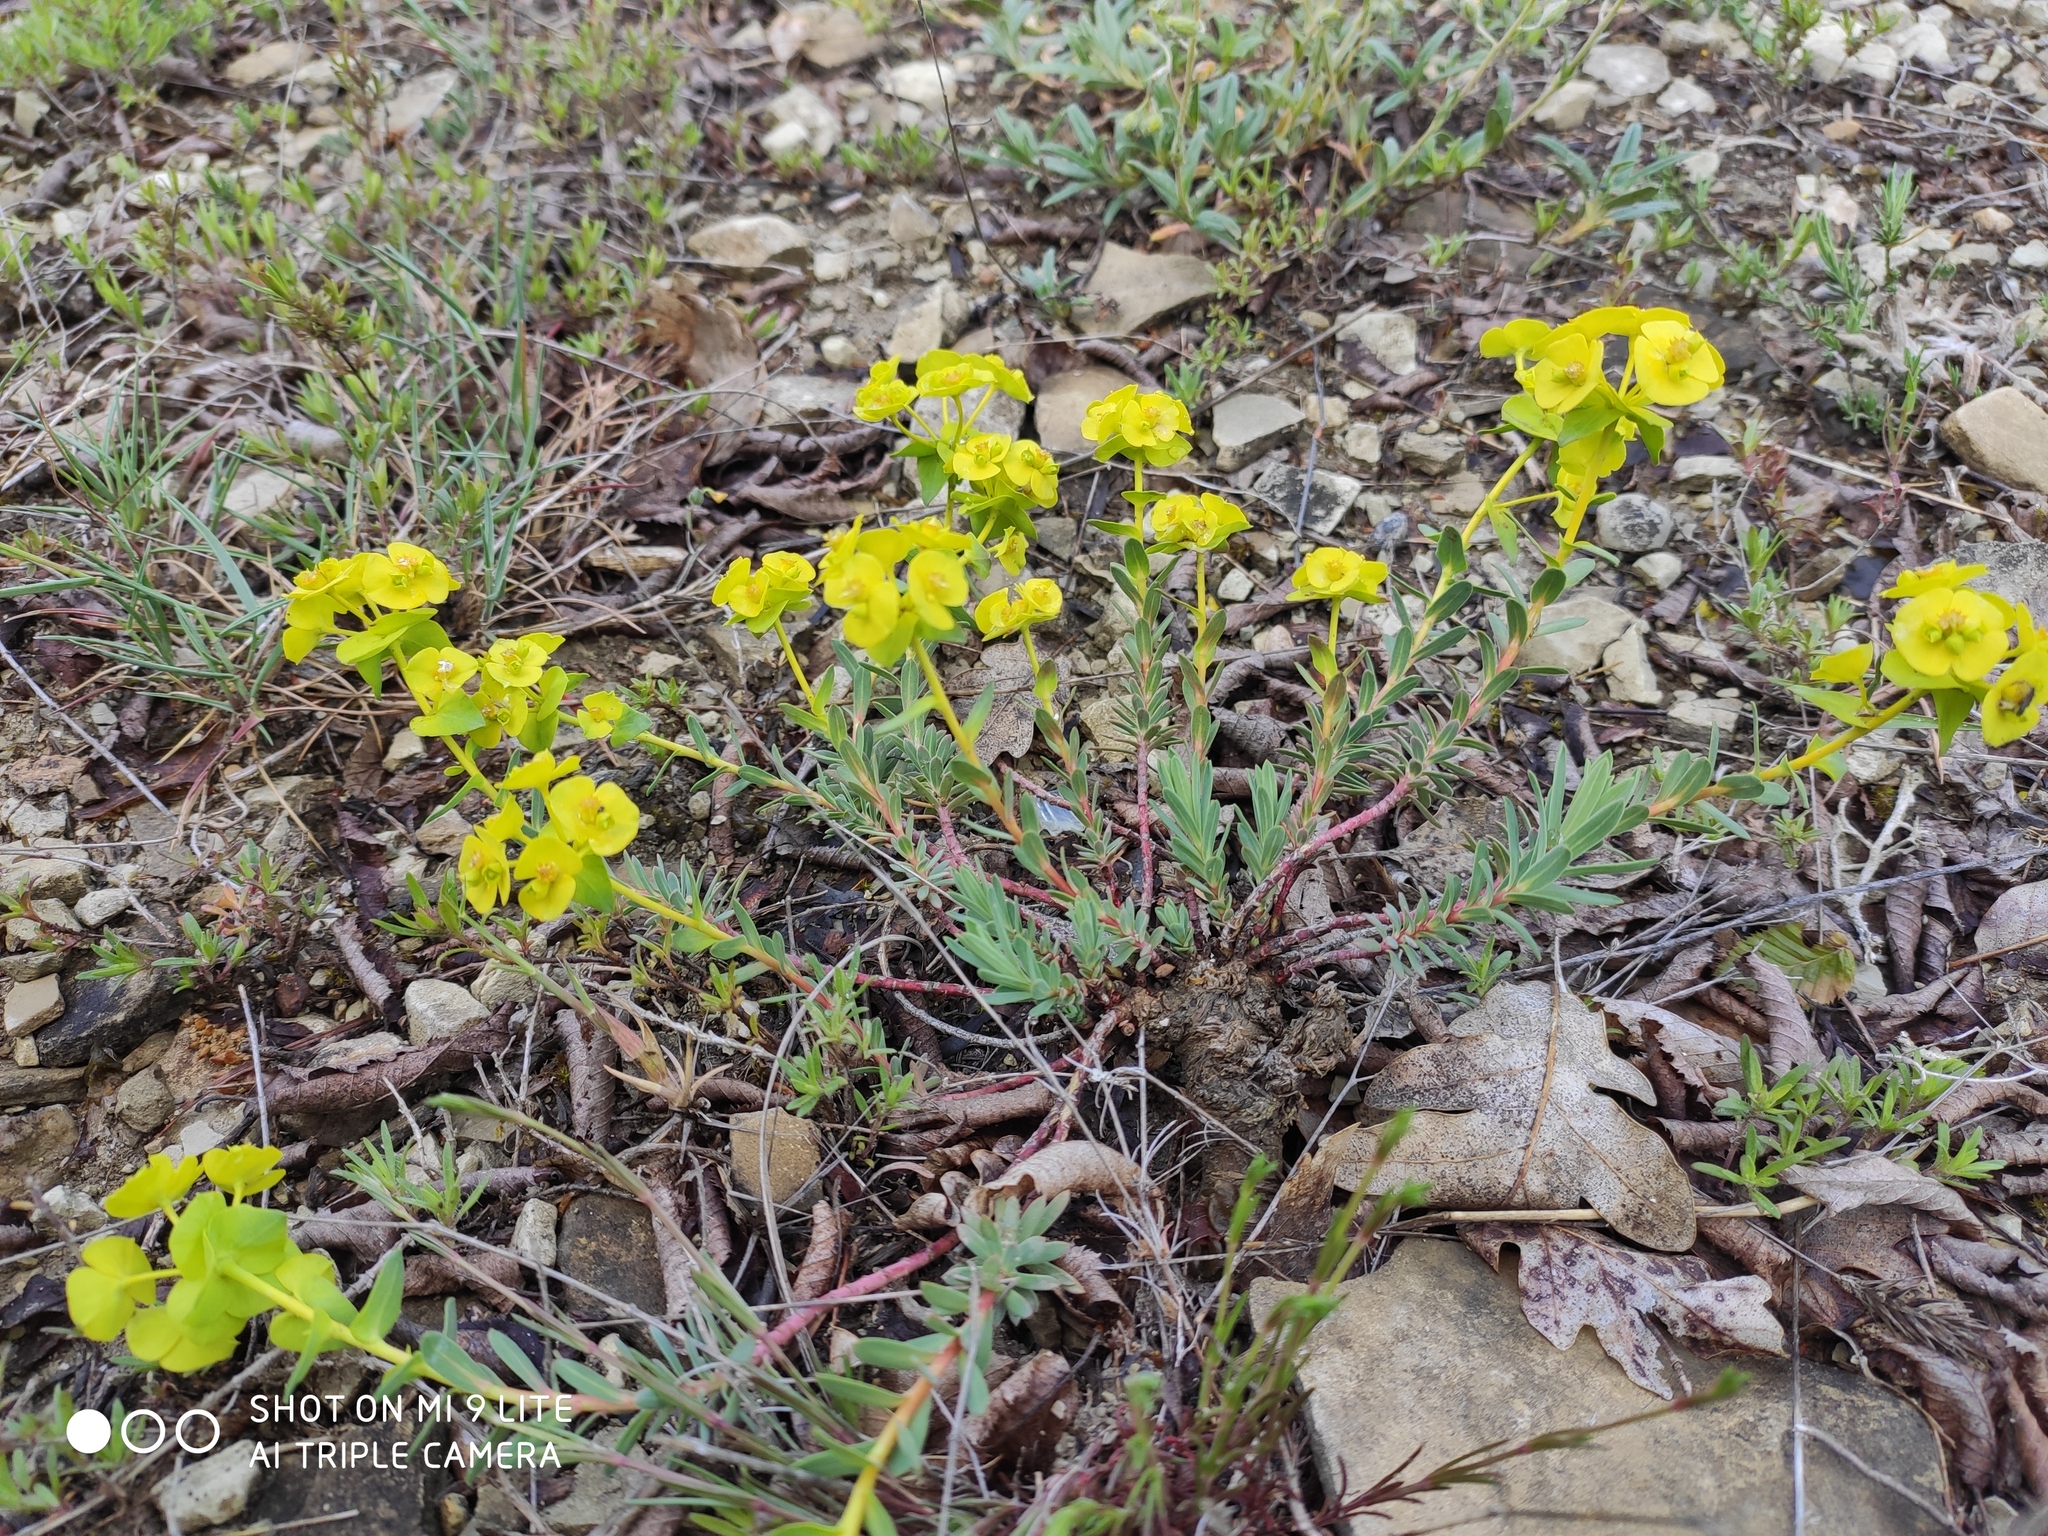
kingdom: Plantae
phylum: Tracheophyta
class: Magnoliopsida
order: Malpighiales
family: Euphorbiaceae
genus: Euphorbia
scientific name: Euphorbia petrophila
